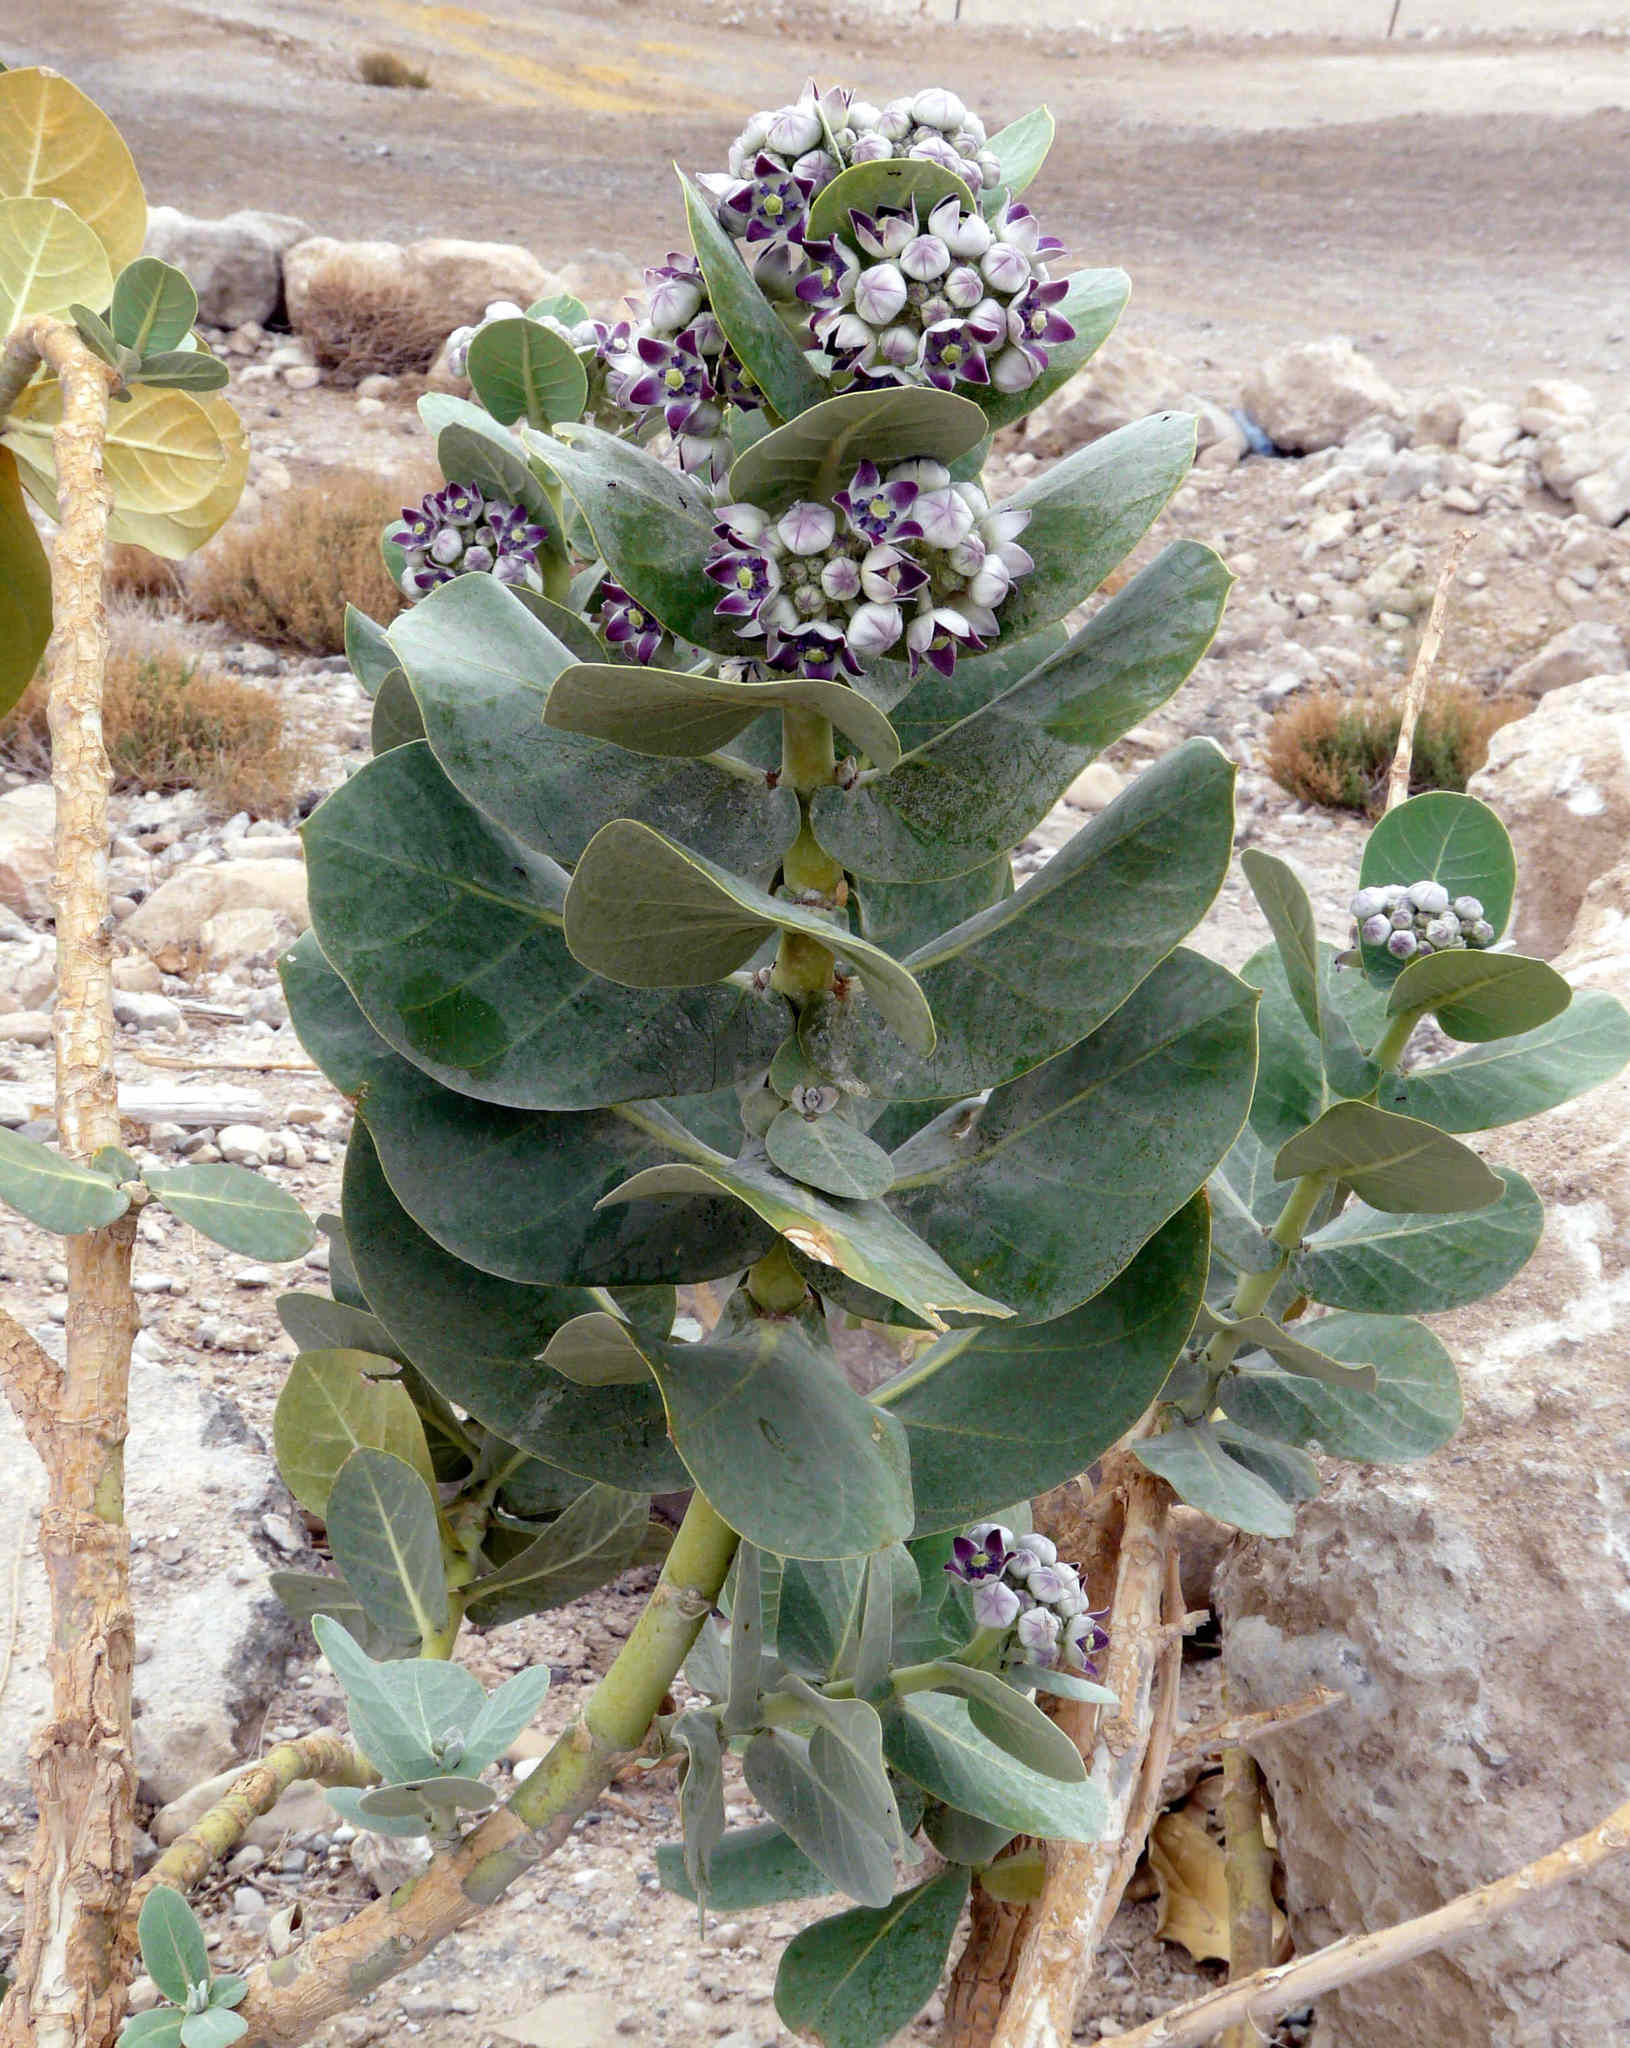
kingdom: Plantae
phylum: Tracheophyta
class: Magnoliopsida
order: Gentianales
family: Apocynaceae
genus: Calotropis
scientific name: Calotropis procera
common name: Roostertree
